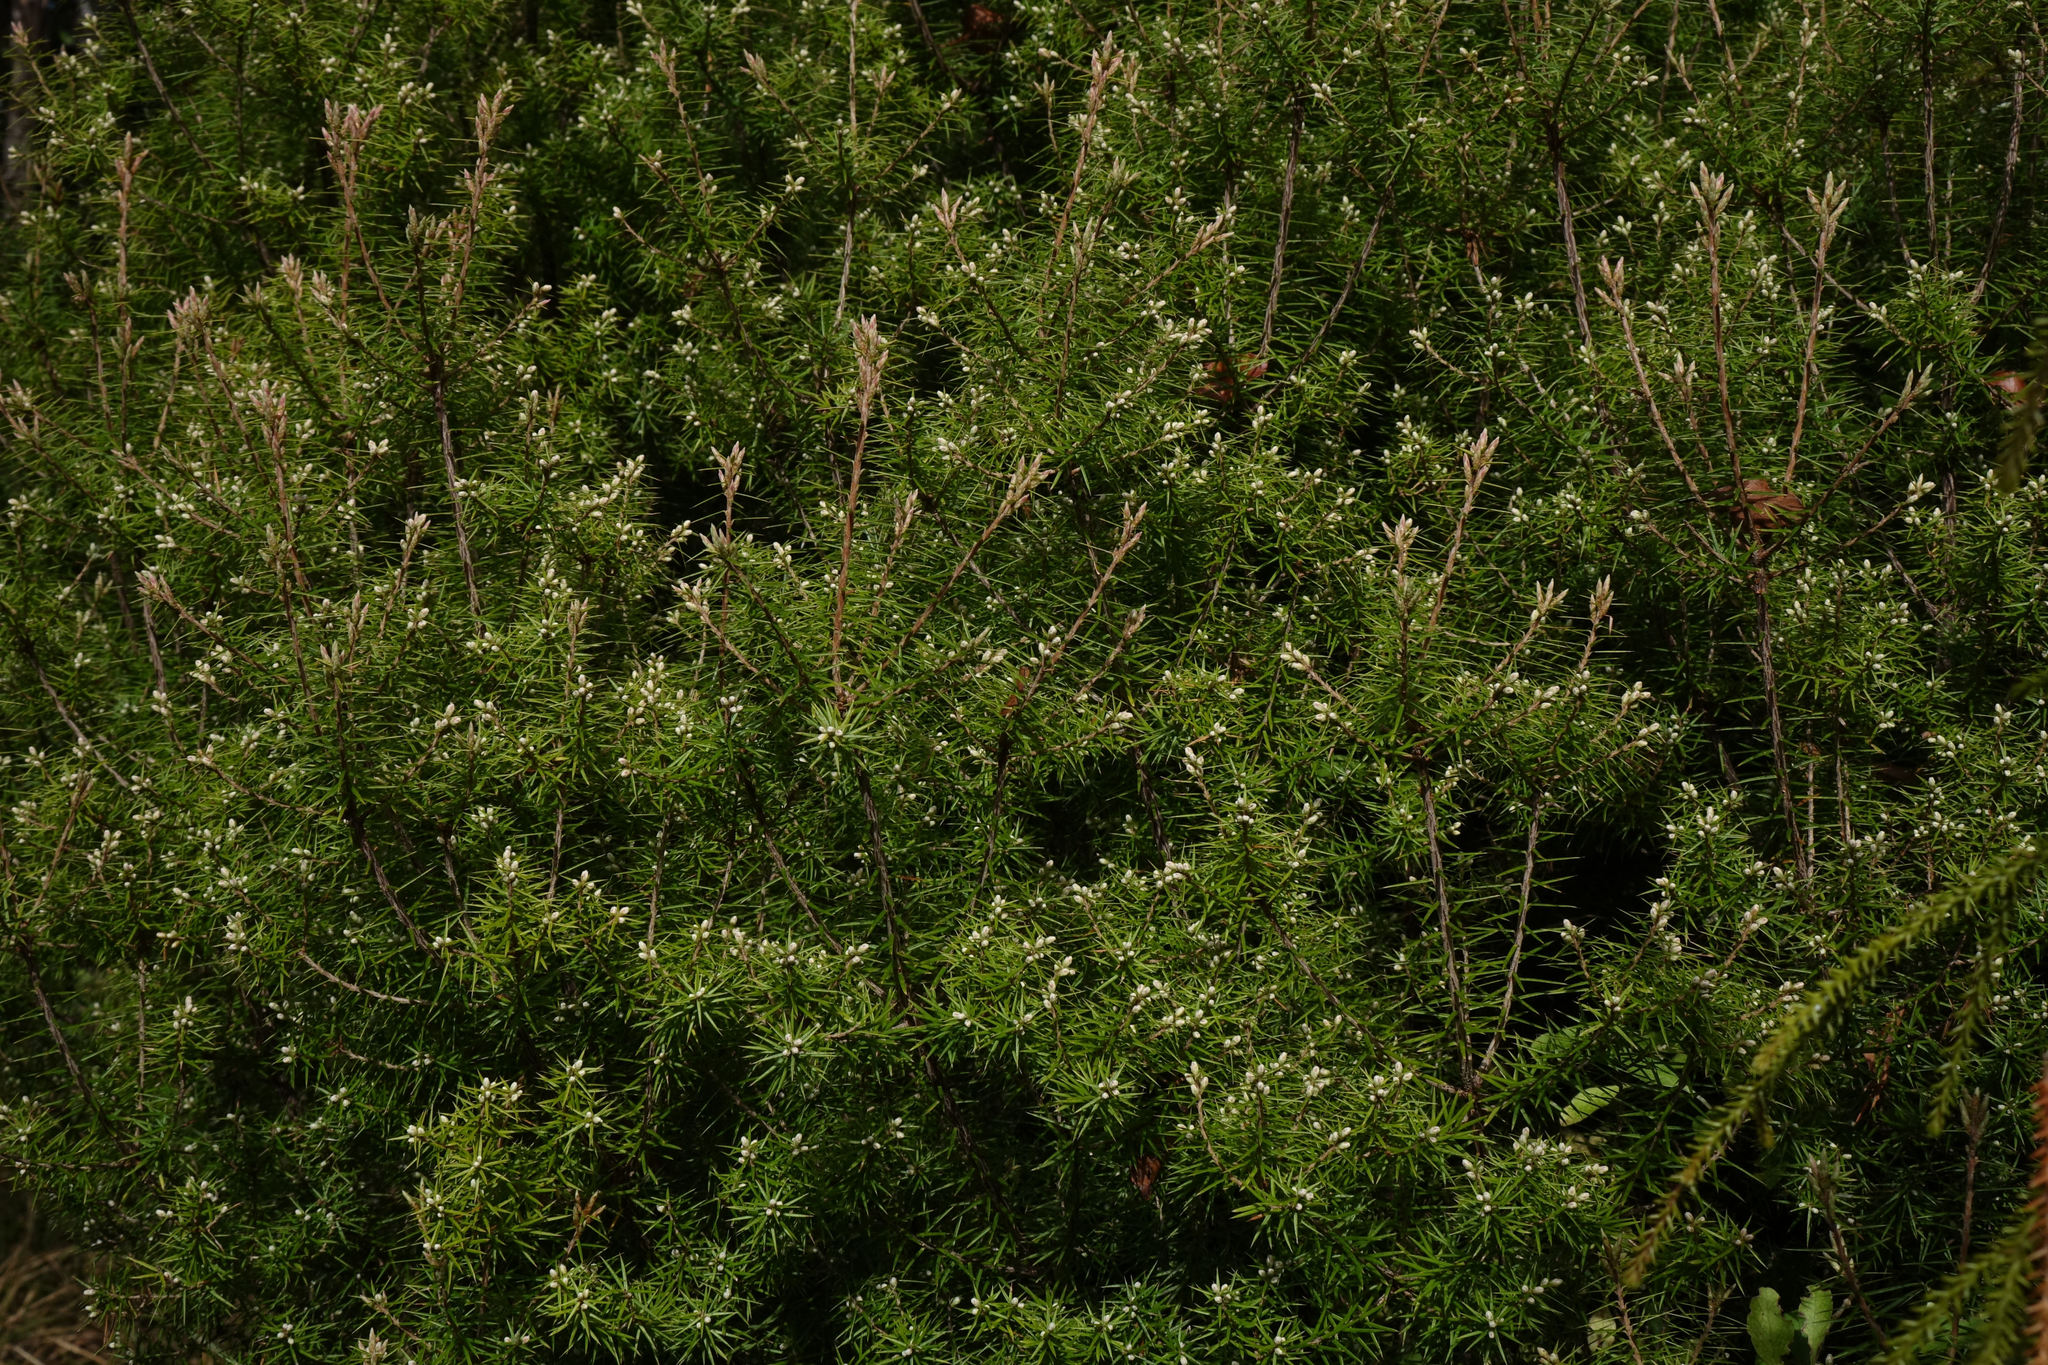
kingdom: Plantae
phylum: Tracheophyta
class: Magnoliopsida
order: Ericales
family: Ericaceae
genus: Leptecophylla
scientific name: Leptecophylla juniperina
